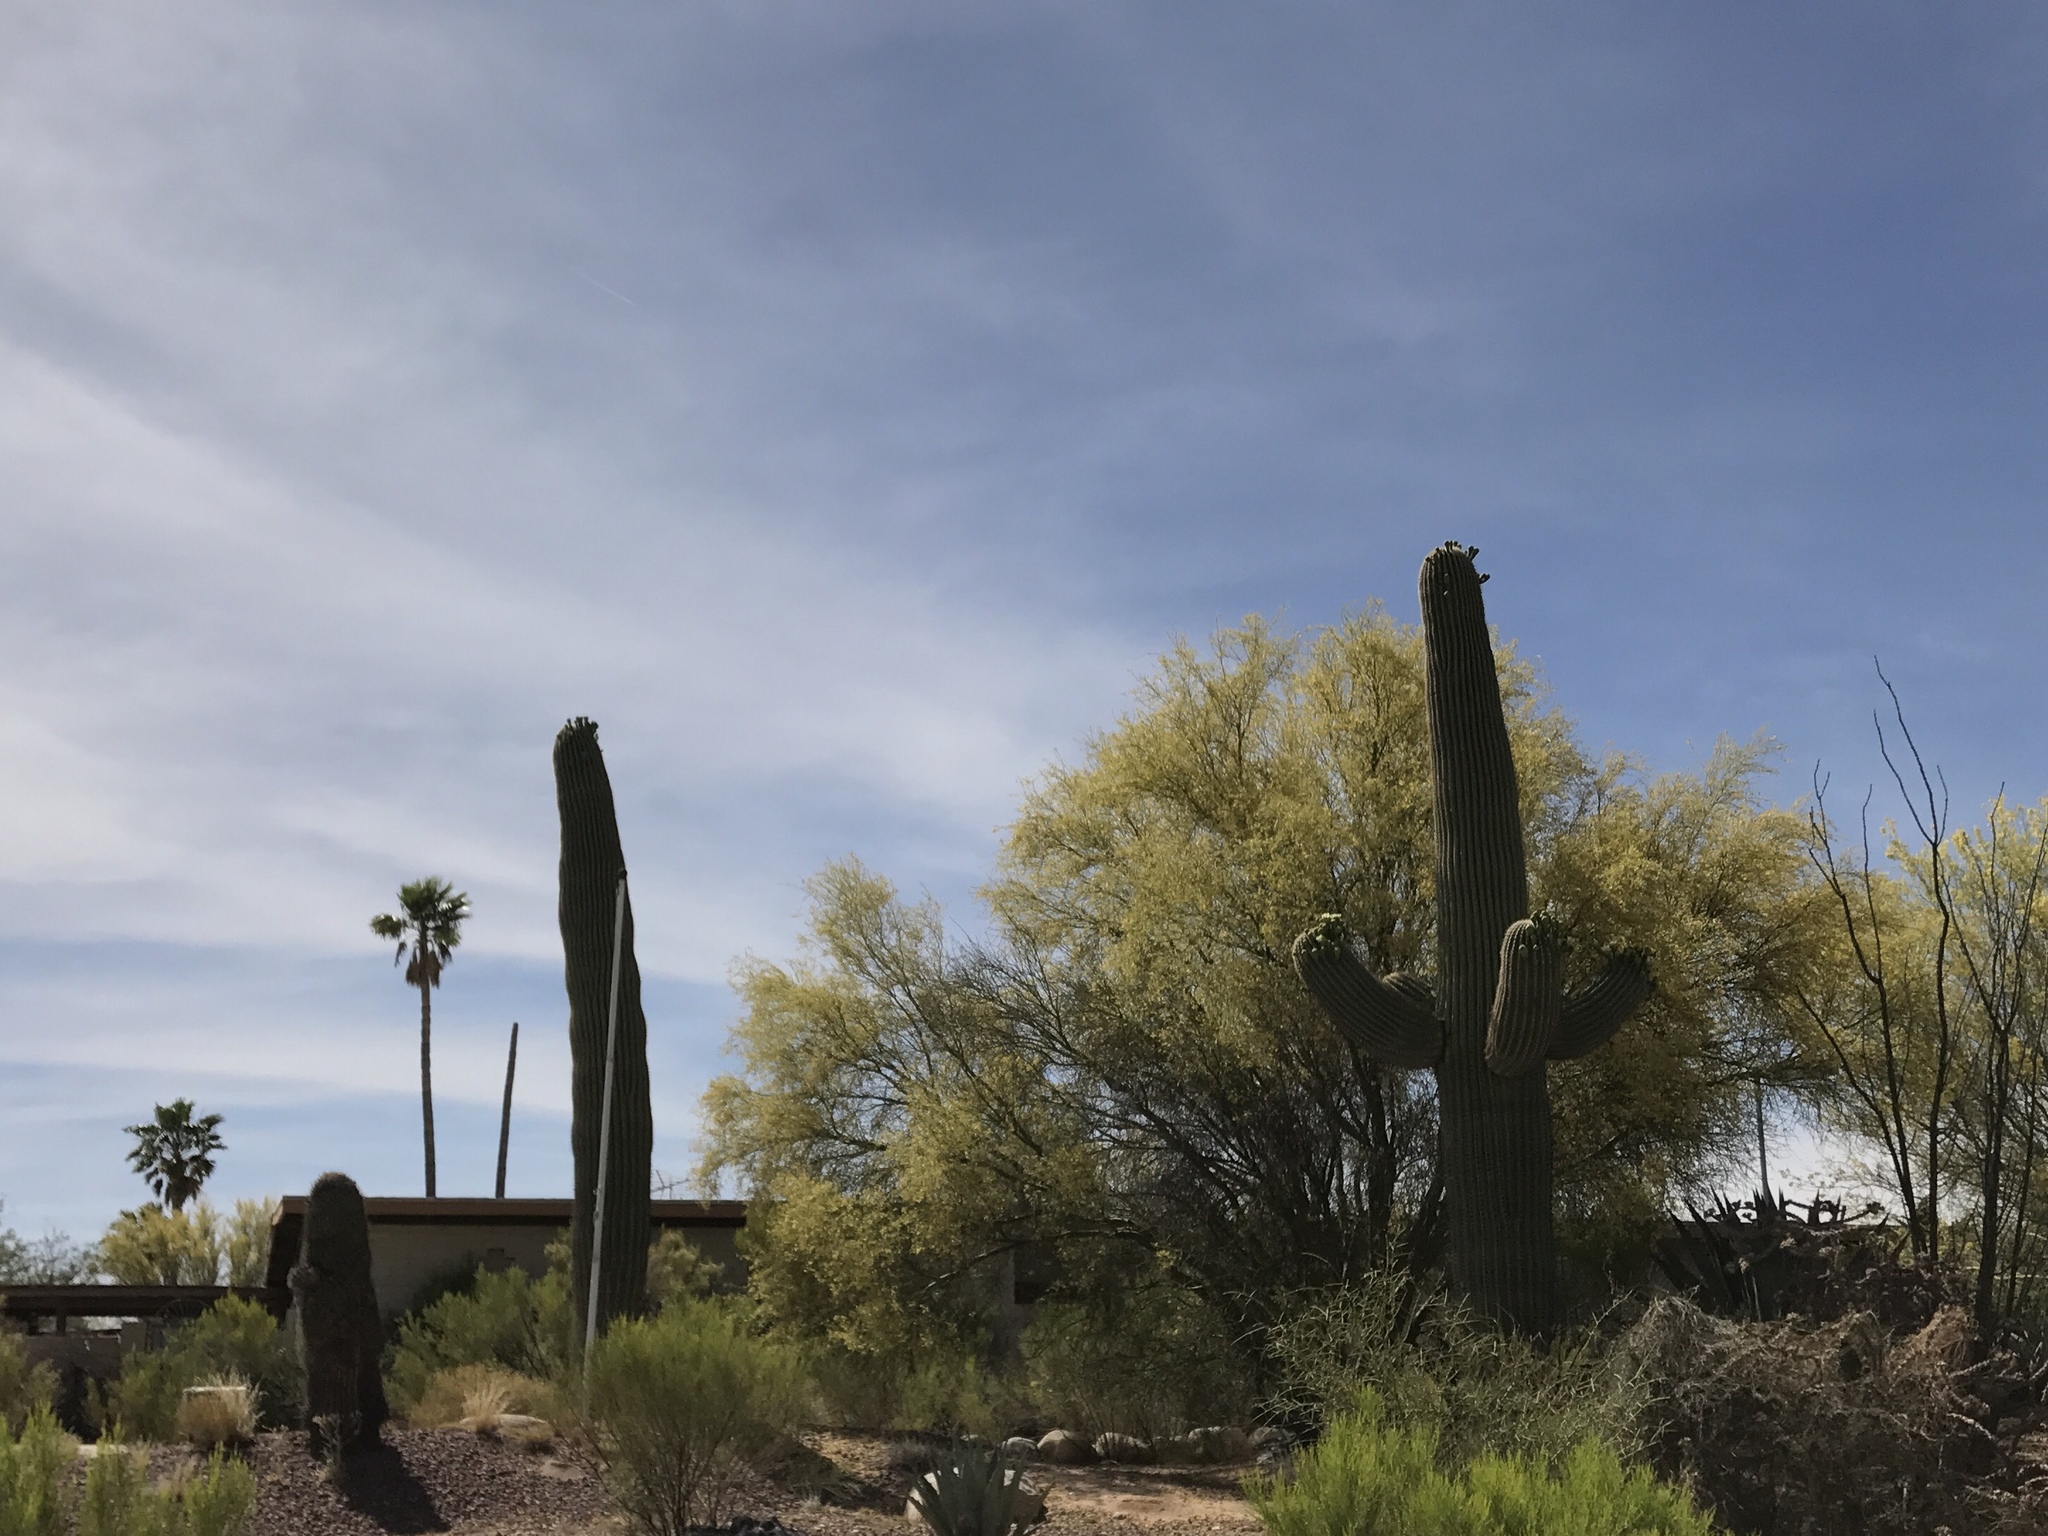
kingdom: Plantae
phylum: Tracheophyta
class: Magnoliopsida
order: Caryophyllales
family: Cactaceae
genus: Carnegiea
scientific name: Carnegiea gigantea
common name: Saguaro
